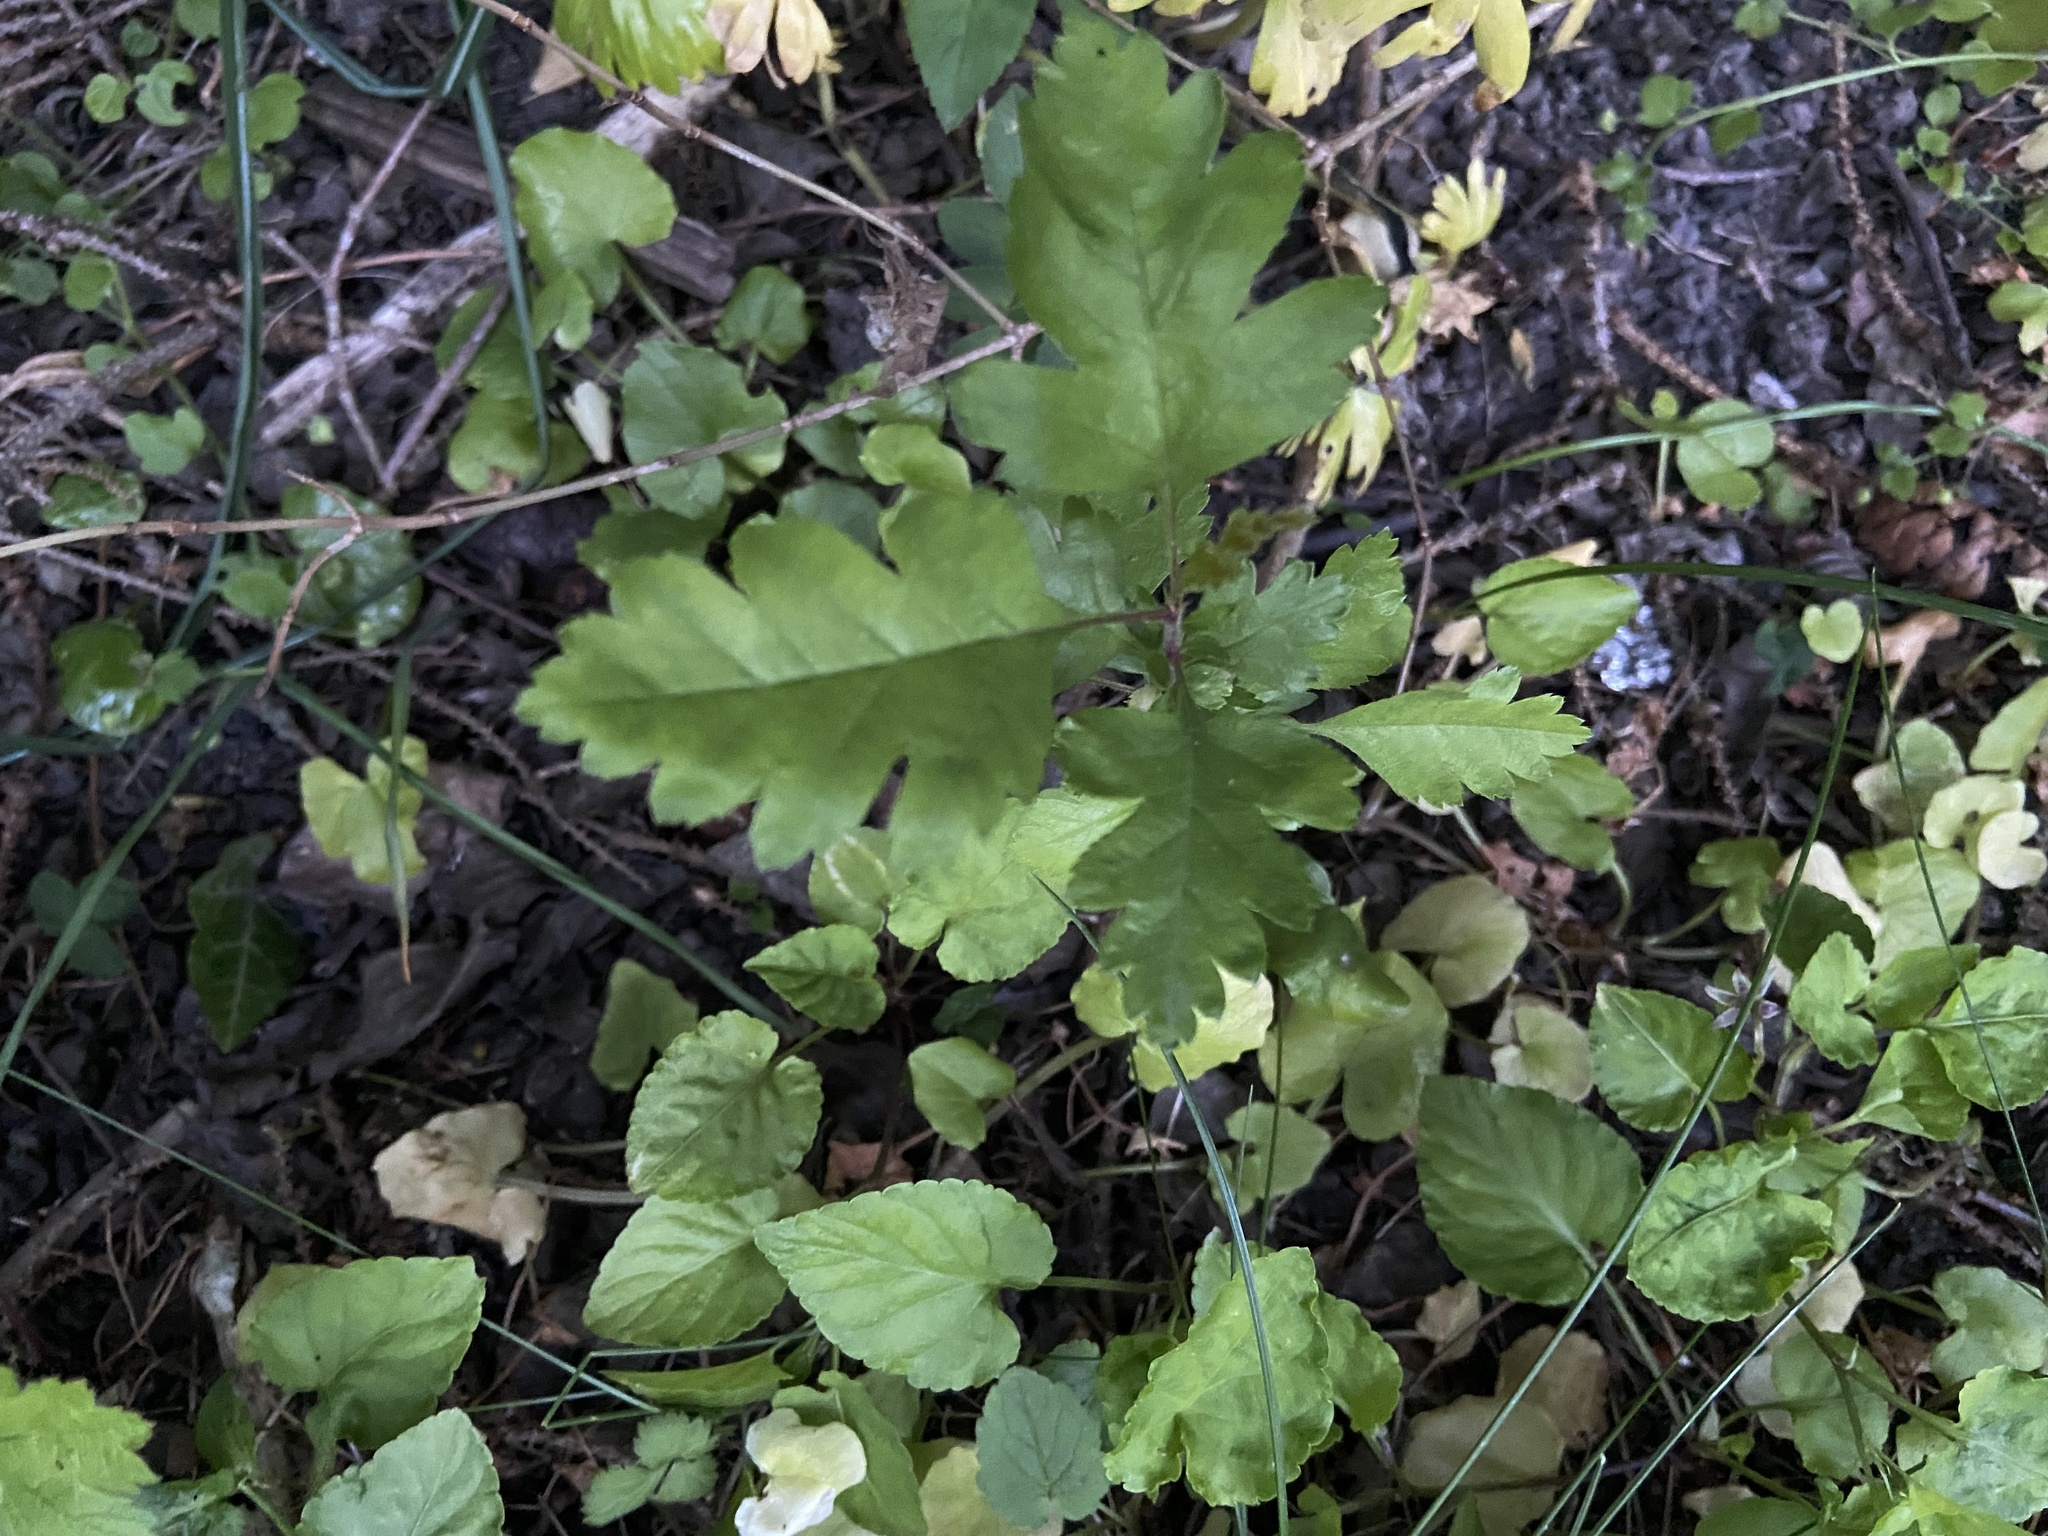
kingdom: Plantae
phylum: Tracheophyta
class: Magnoliopsida
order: Rosales
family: Rosaceae
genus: Crataegus
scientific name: Crataegus monogyna
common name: Hawthorn
